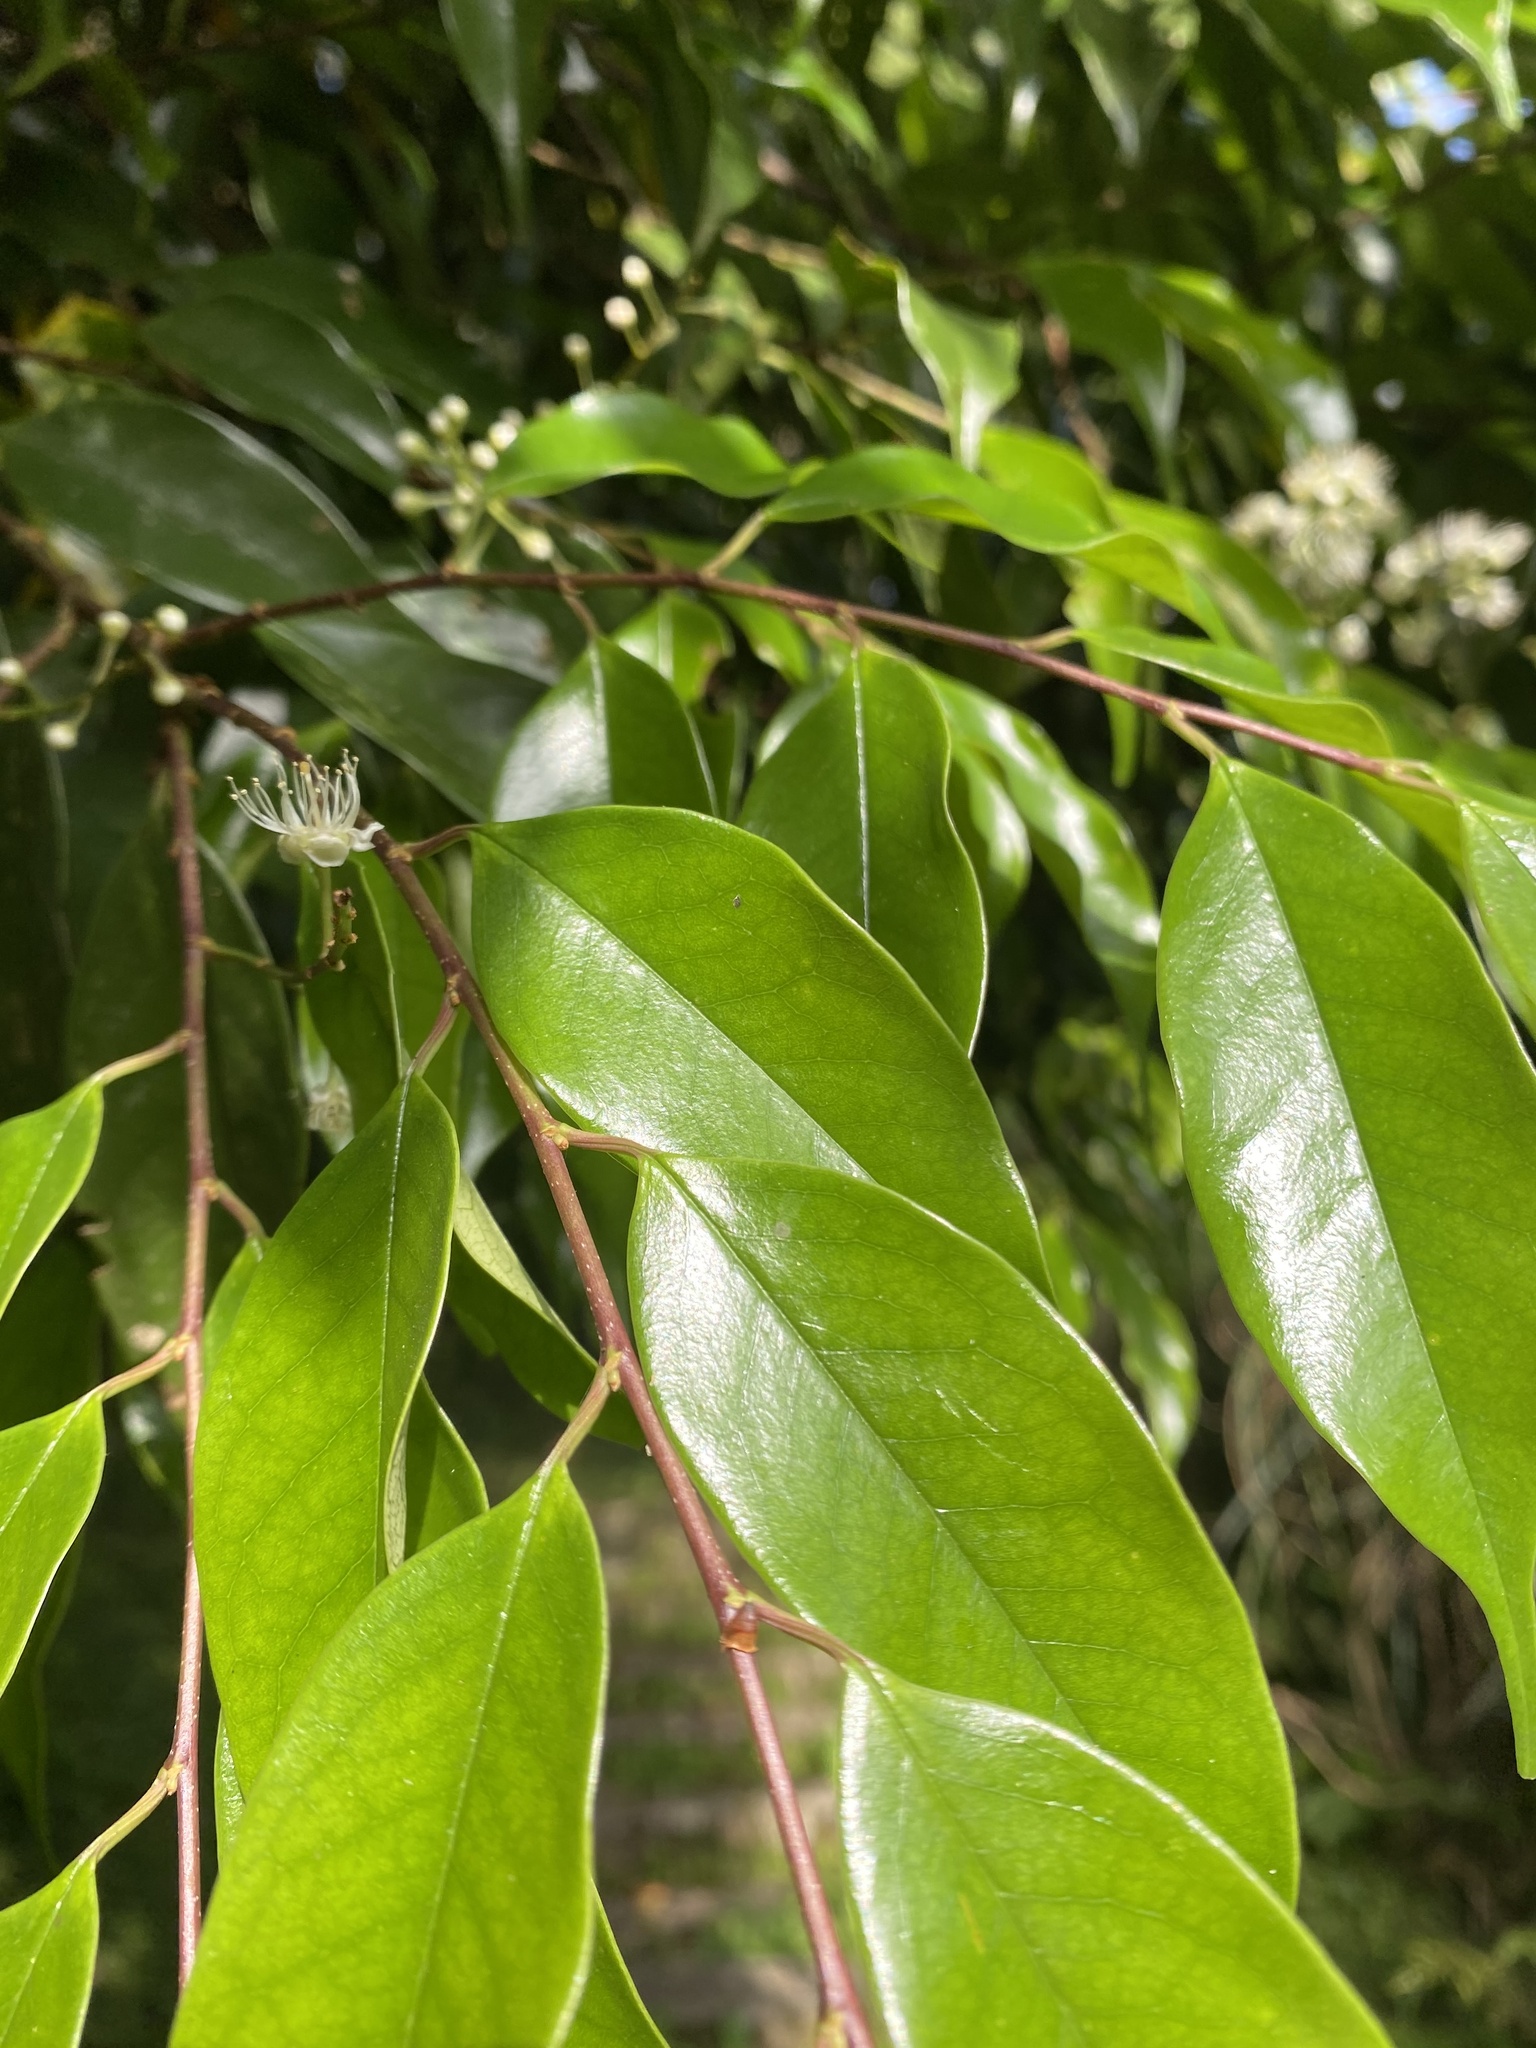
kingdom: Plantae
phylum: Tracheophyta
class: Magnoliopsida
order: Rosales
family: Rosaceae
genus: Prunus
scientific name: Prunus phaeosticta
